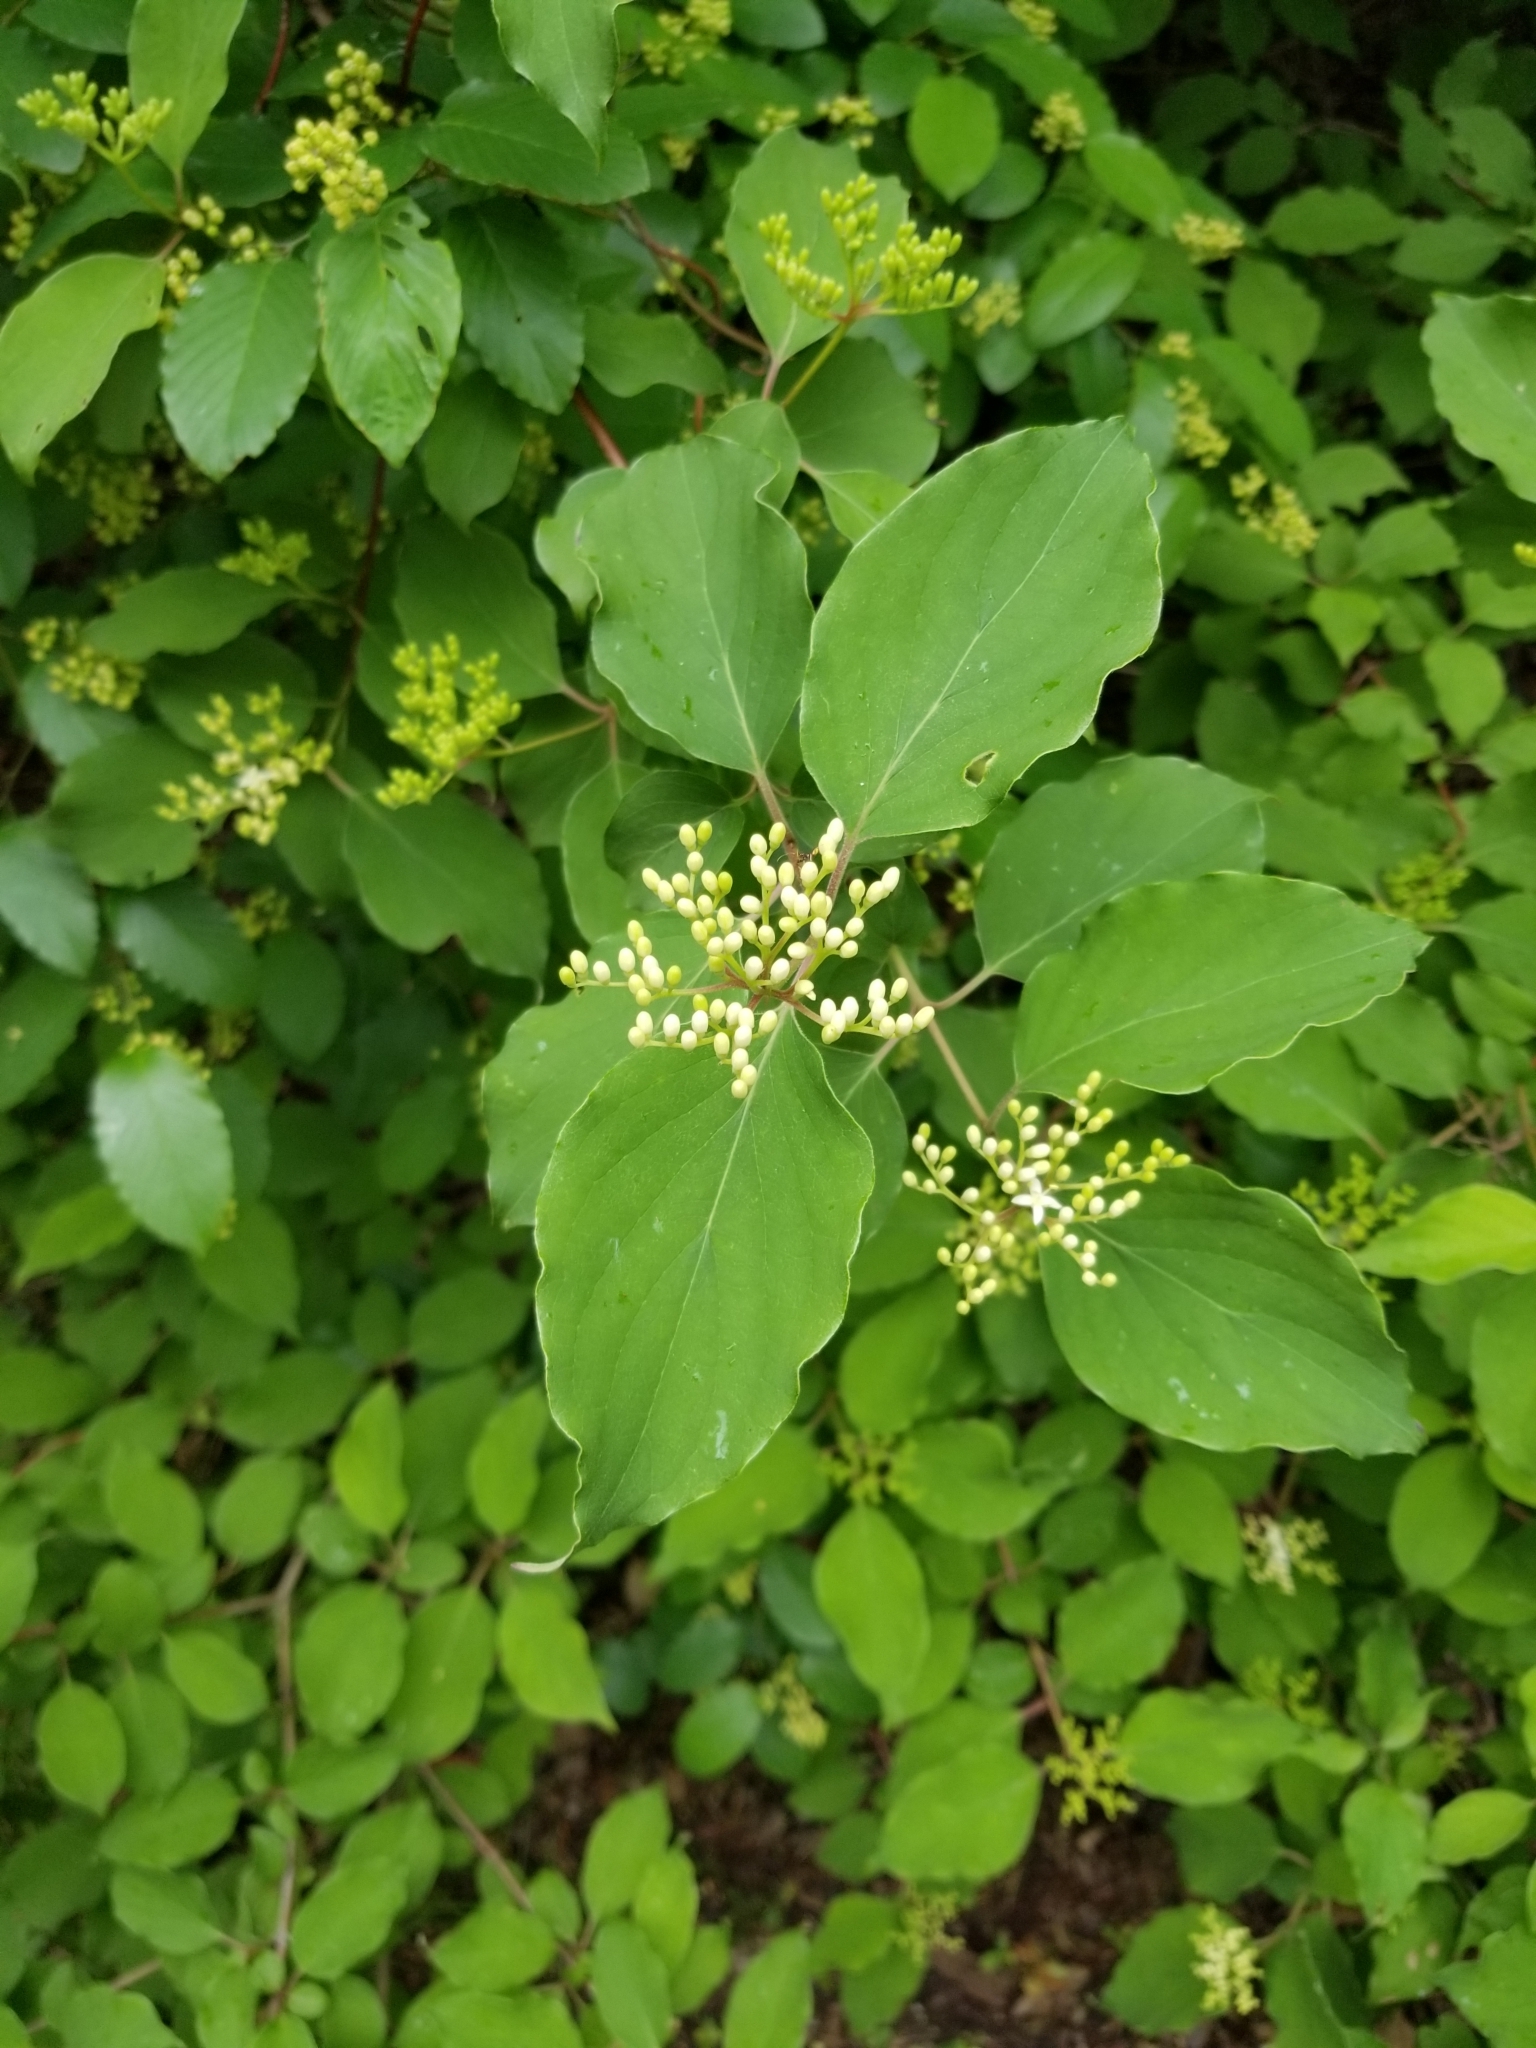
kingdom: Plantae
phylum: Tracheophyta
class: Magnoliopsida
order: Cornales
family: Cornaceae
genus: Cornus
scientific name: Cornus drummondii
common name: Rough-leaf dogwood
